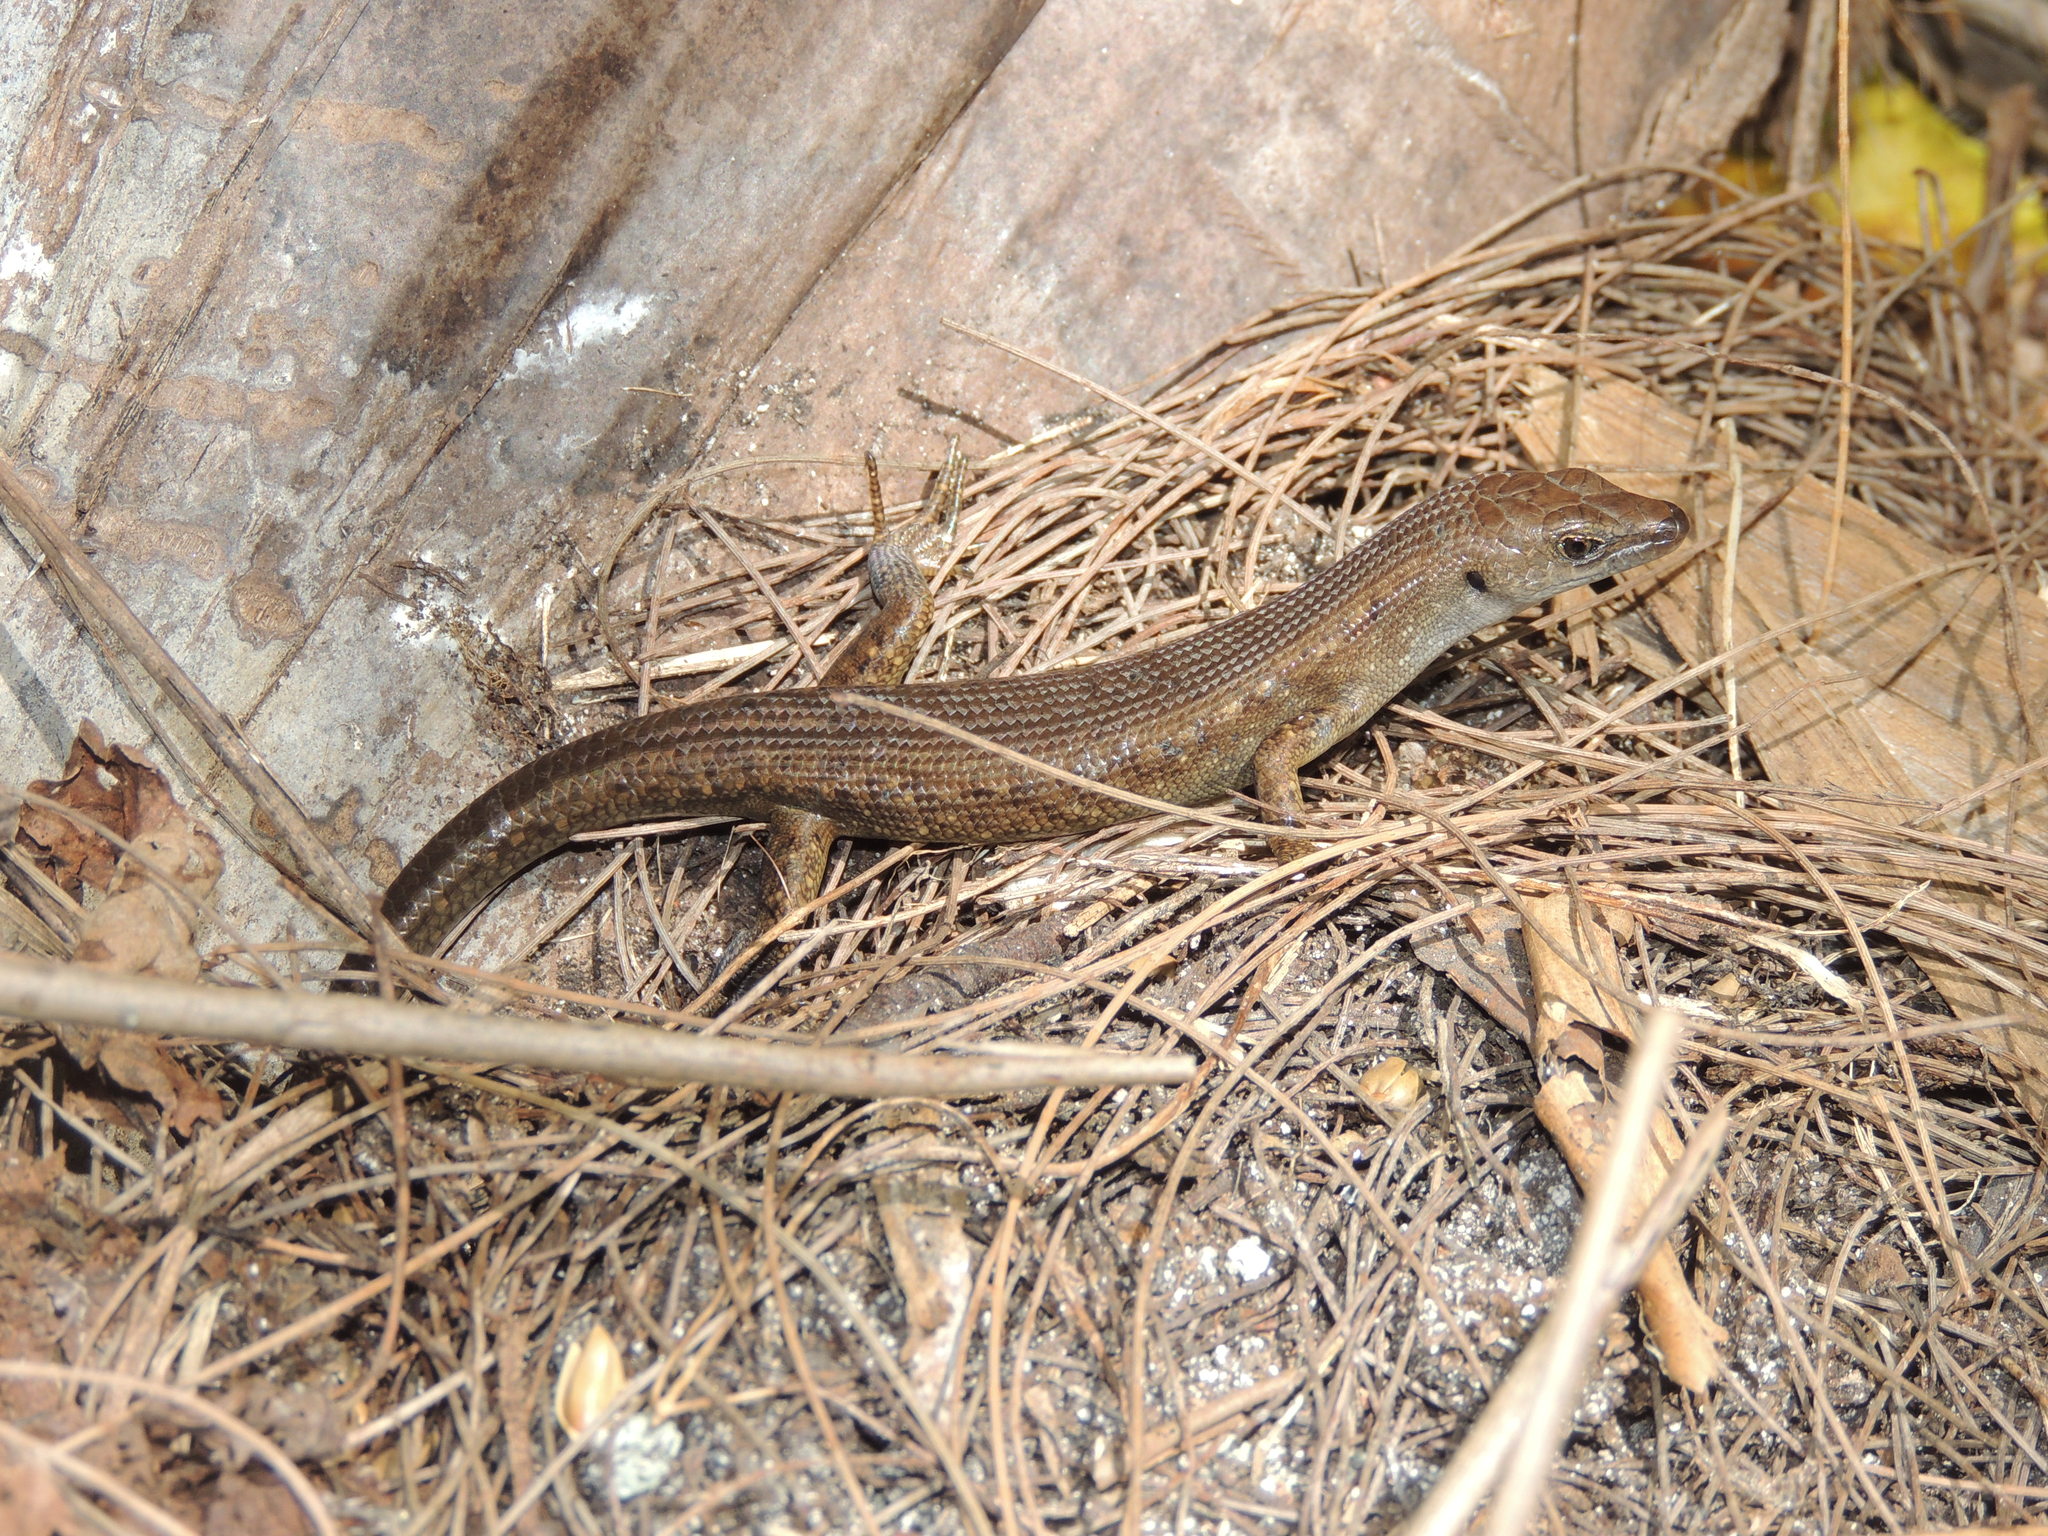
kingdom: Animalia
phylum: Chordata
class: Squamata
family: Scincidae
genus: Emoia
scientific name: Emoia slevini
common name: Mariana skink
